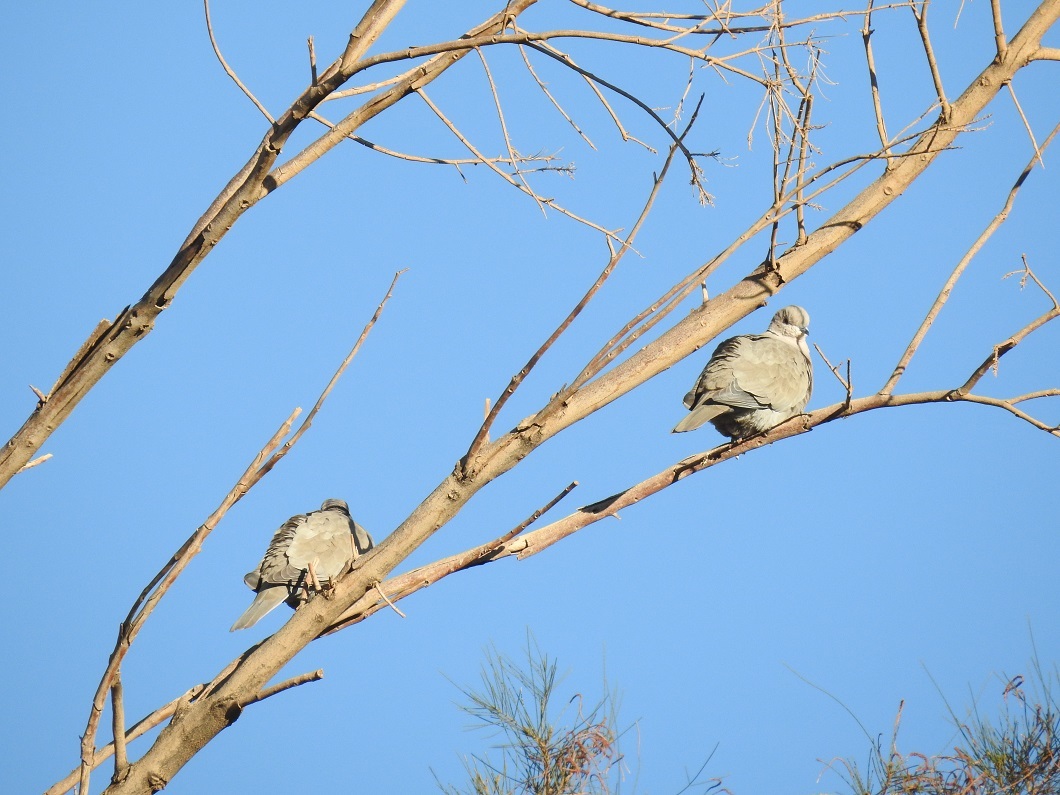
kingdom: Animalia
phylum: Chordata
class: Aves
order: Columbiformes
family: Columbidae
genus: Streptopelia
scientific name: Streptopelia decaocto
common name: Eurasian collared dove
